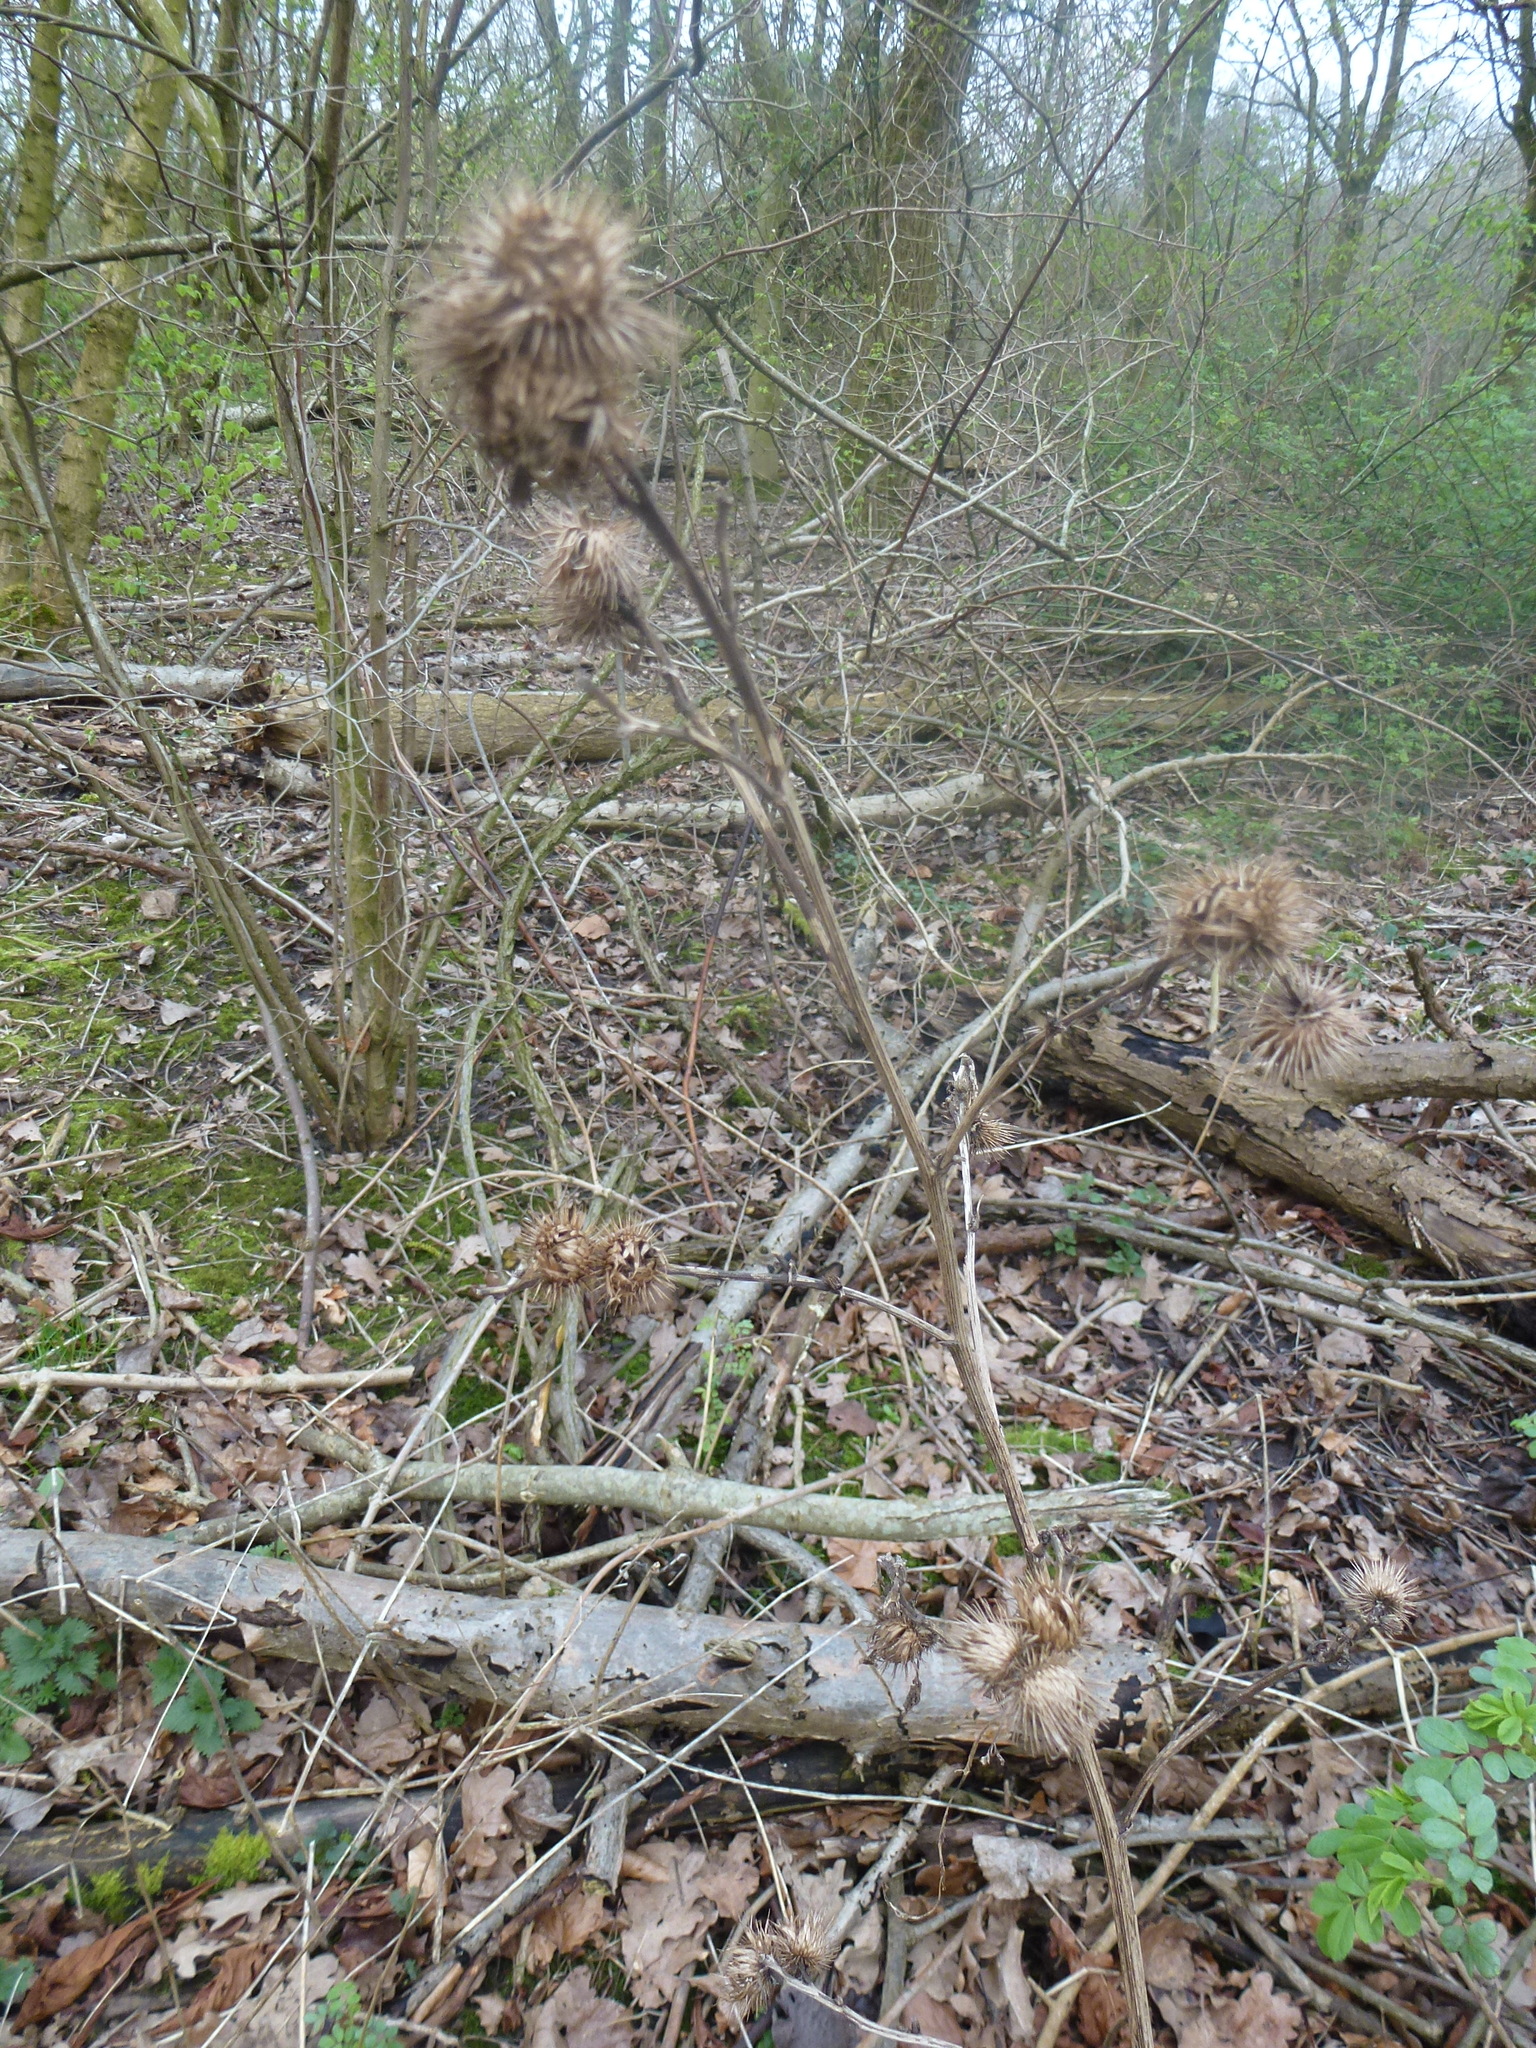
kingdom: Plantae
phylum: Tracheophyta
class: Magnoliopsida
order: Asterales
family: Asteraceae
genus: Arctium
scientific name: Arctium minus
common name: Lesser burdock
